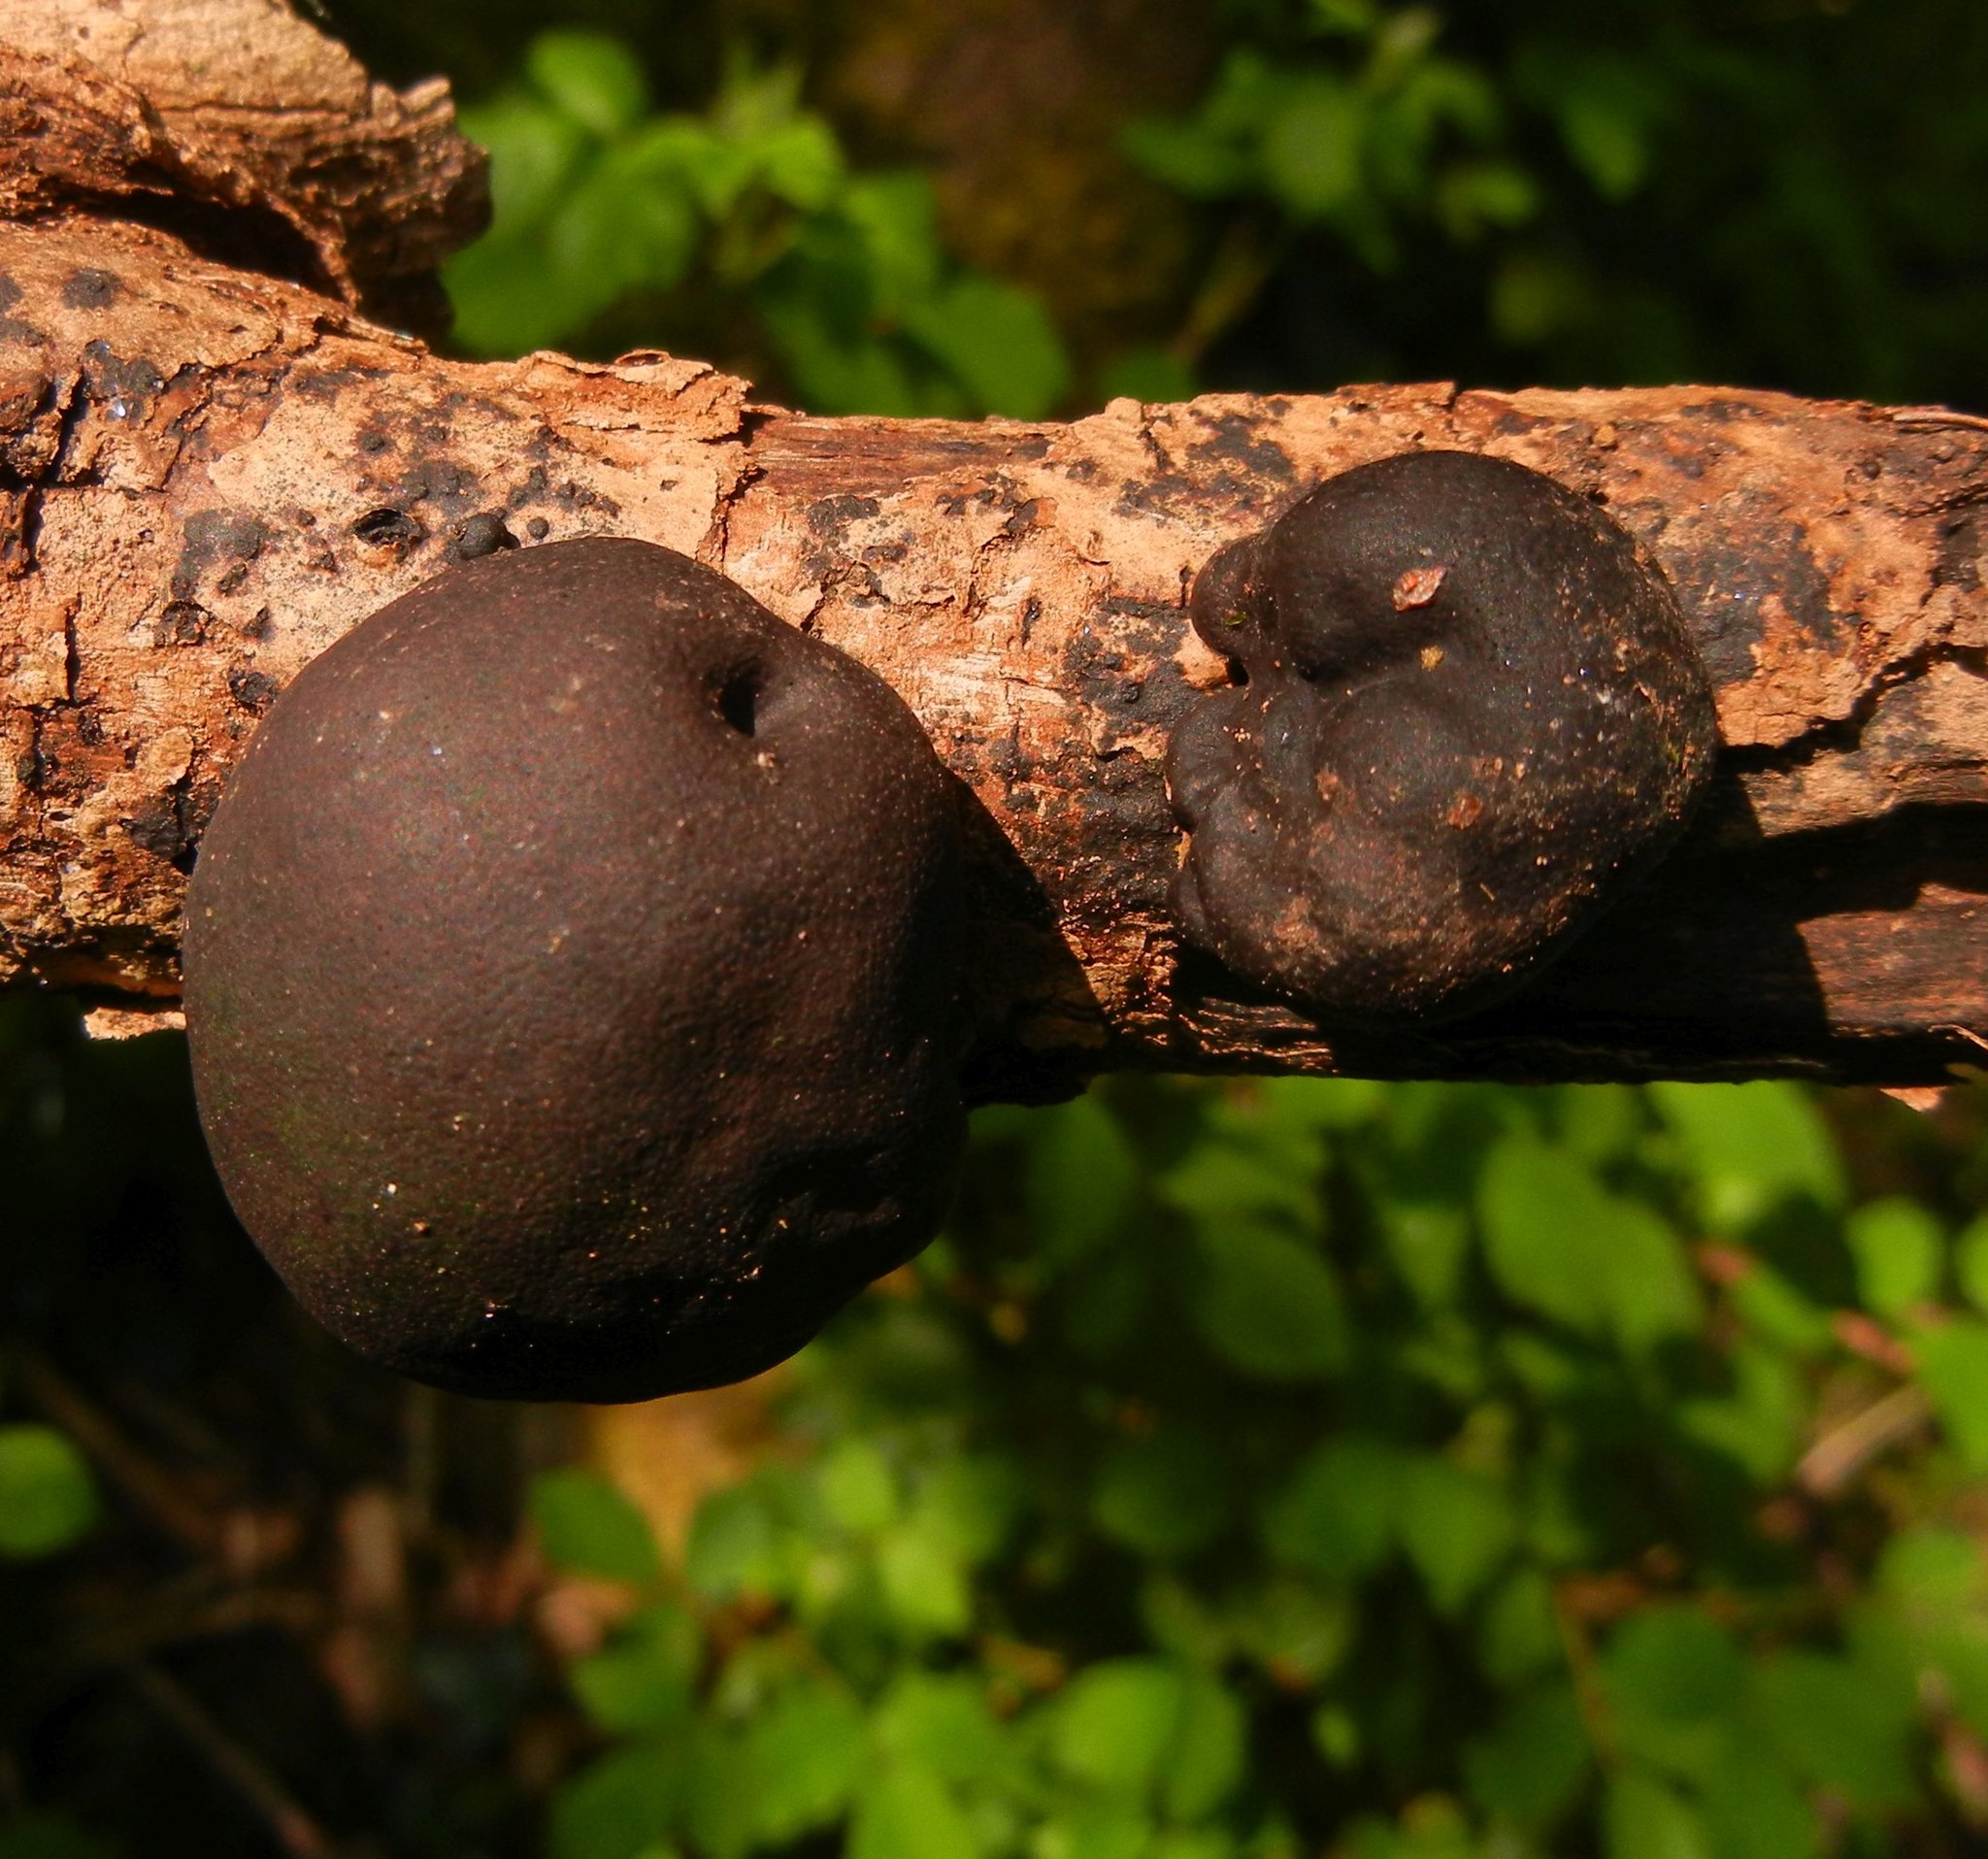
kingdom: Fungi
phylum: Ascomycota
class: Sordariomycetes
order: Xylariales
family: Hypoxylaceae
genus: Daldinia
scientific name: Daldinia concentrica
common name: Cramp balls
